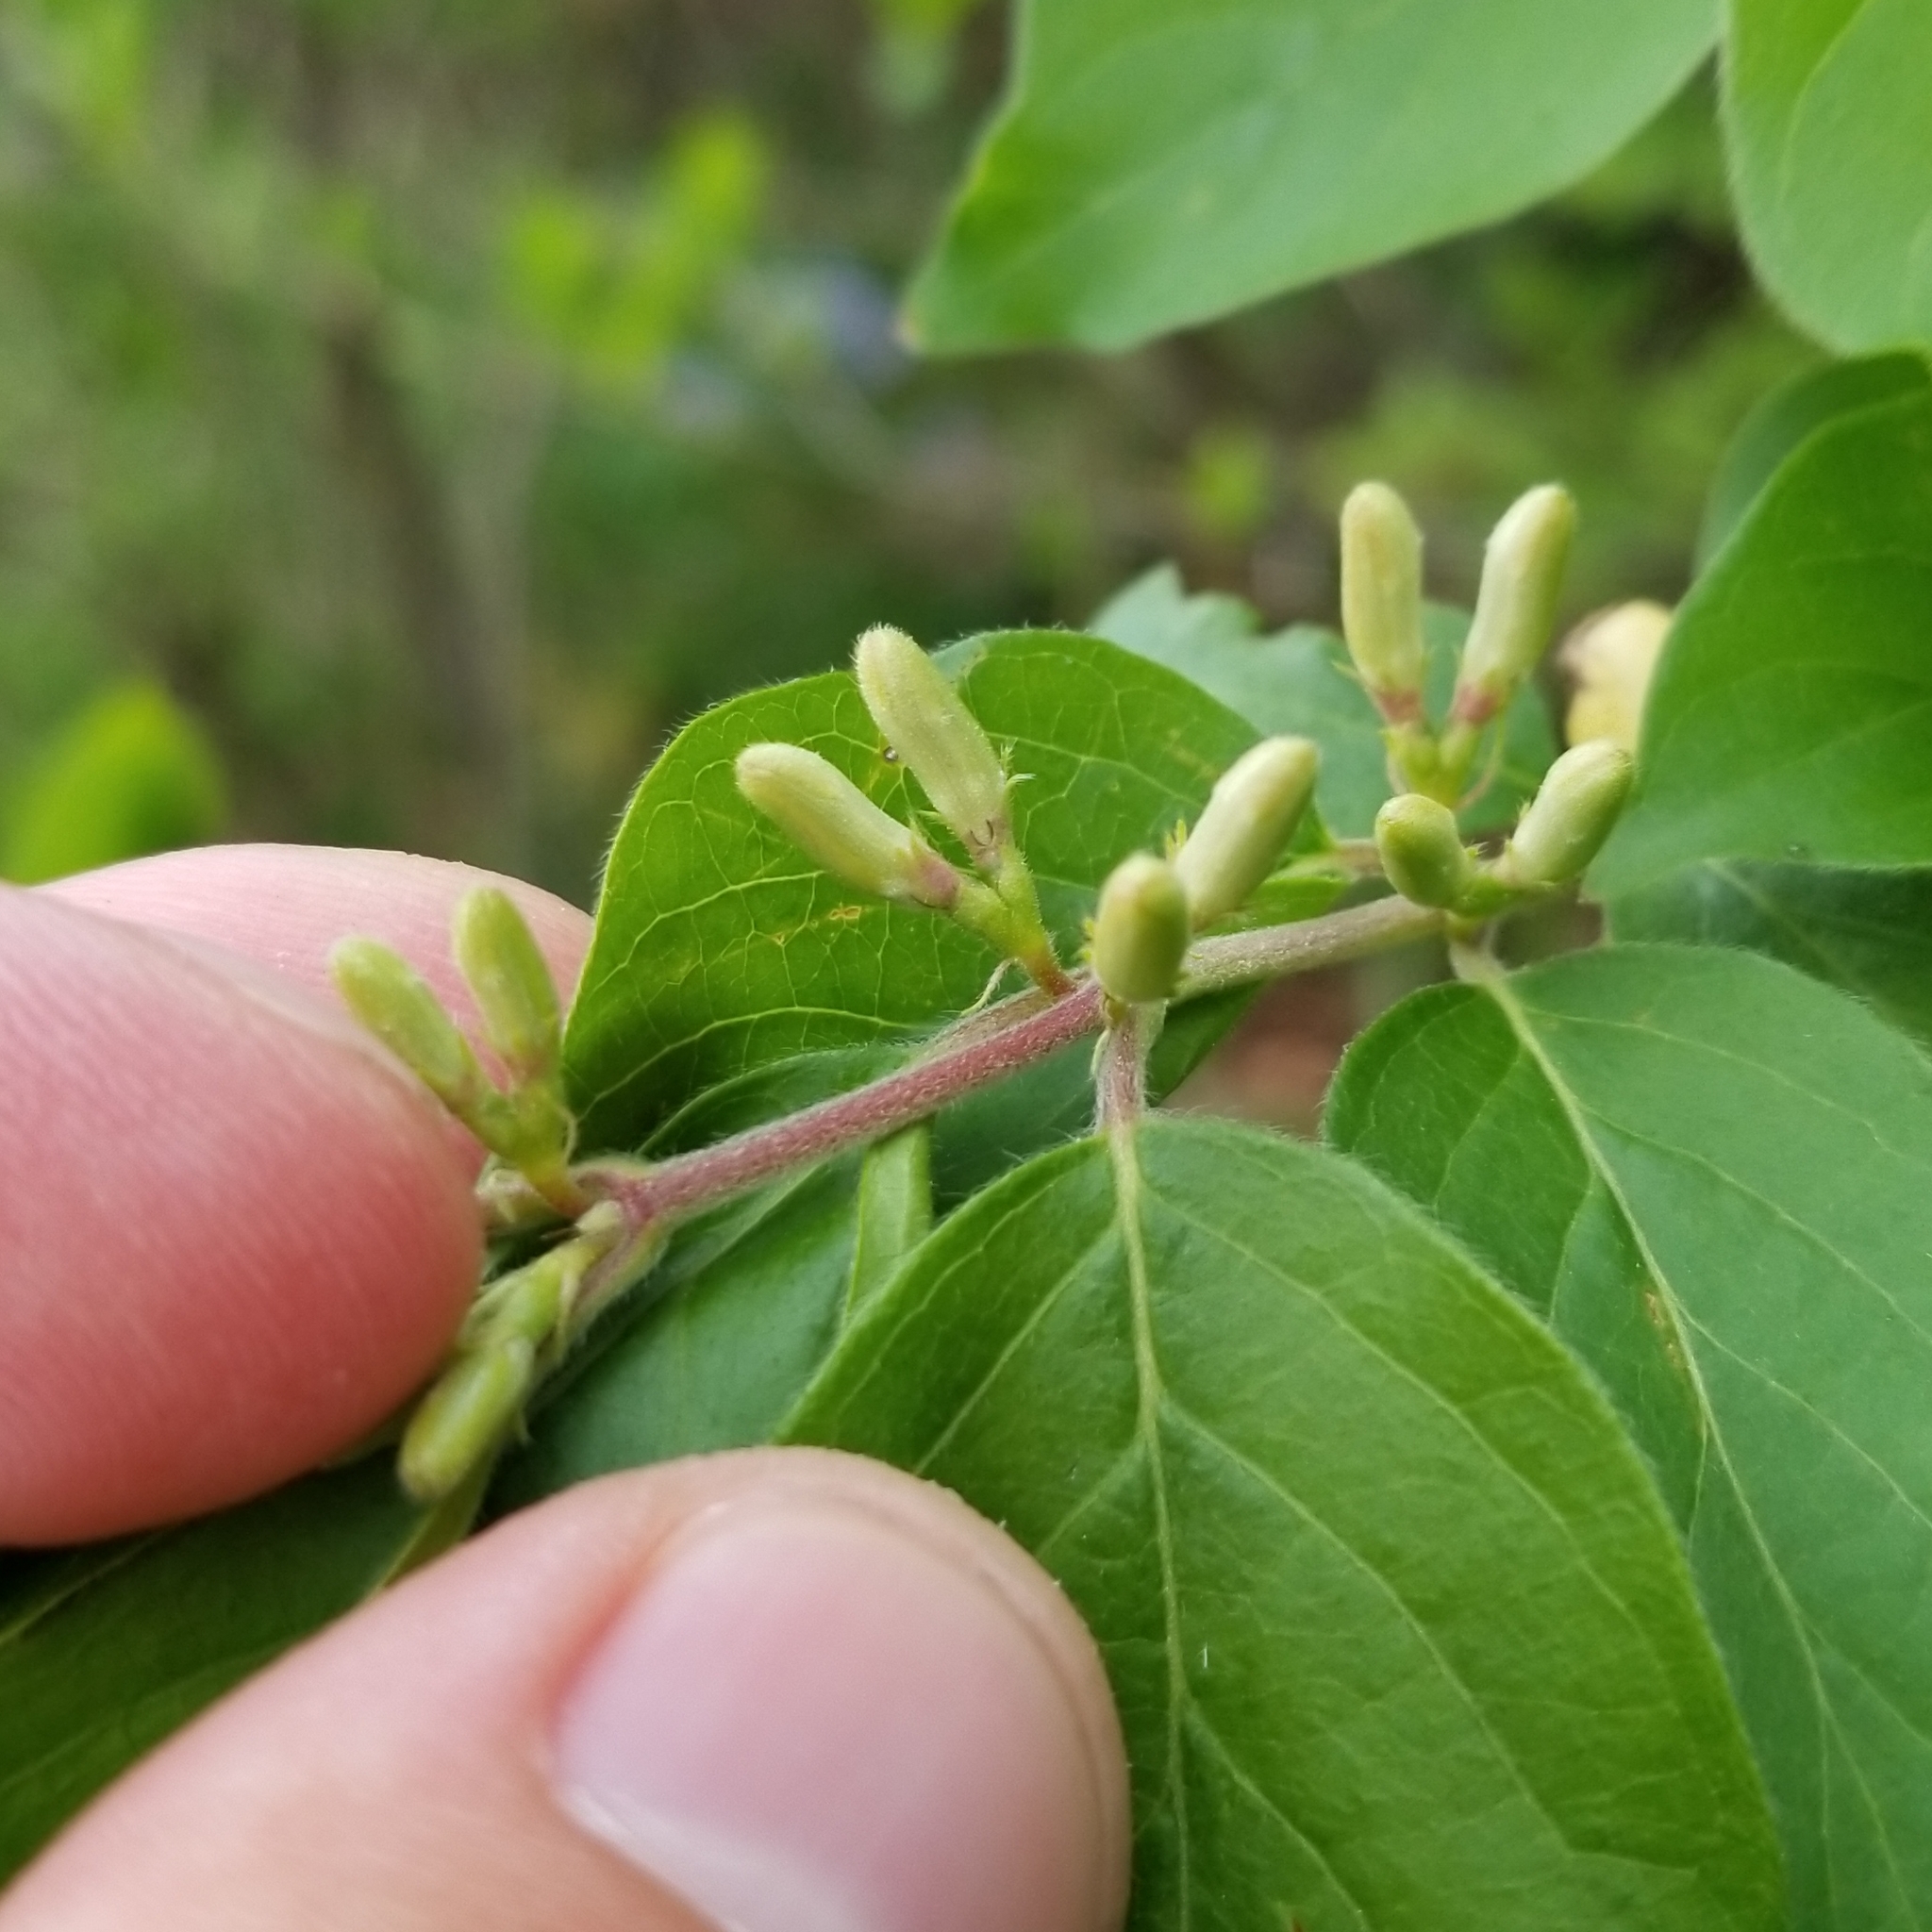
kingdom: Plantae
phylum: Tracheophyta
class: Magnoliopsida
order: Dipsacales
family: Caprifoliaceae
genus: Lonicera
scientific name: Lonicera maackii
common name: Amur honeysuckle
